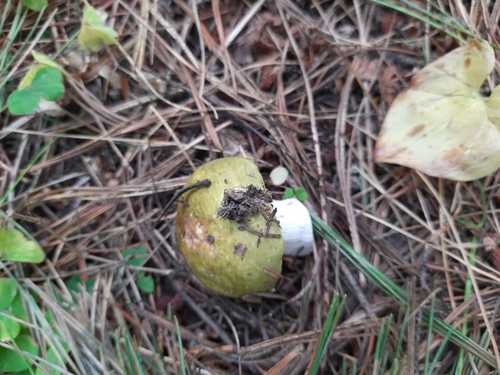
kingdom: Fungi
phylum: Basidiomycota
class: Agaricomycetes
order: Russulales
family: Russulaceae
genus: Russula
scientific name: Russula aeruginea
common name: Green brittlegill
